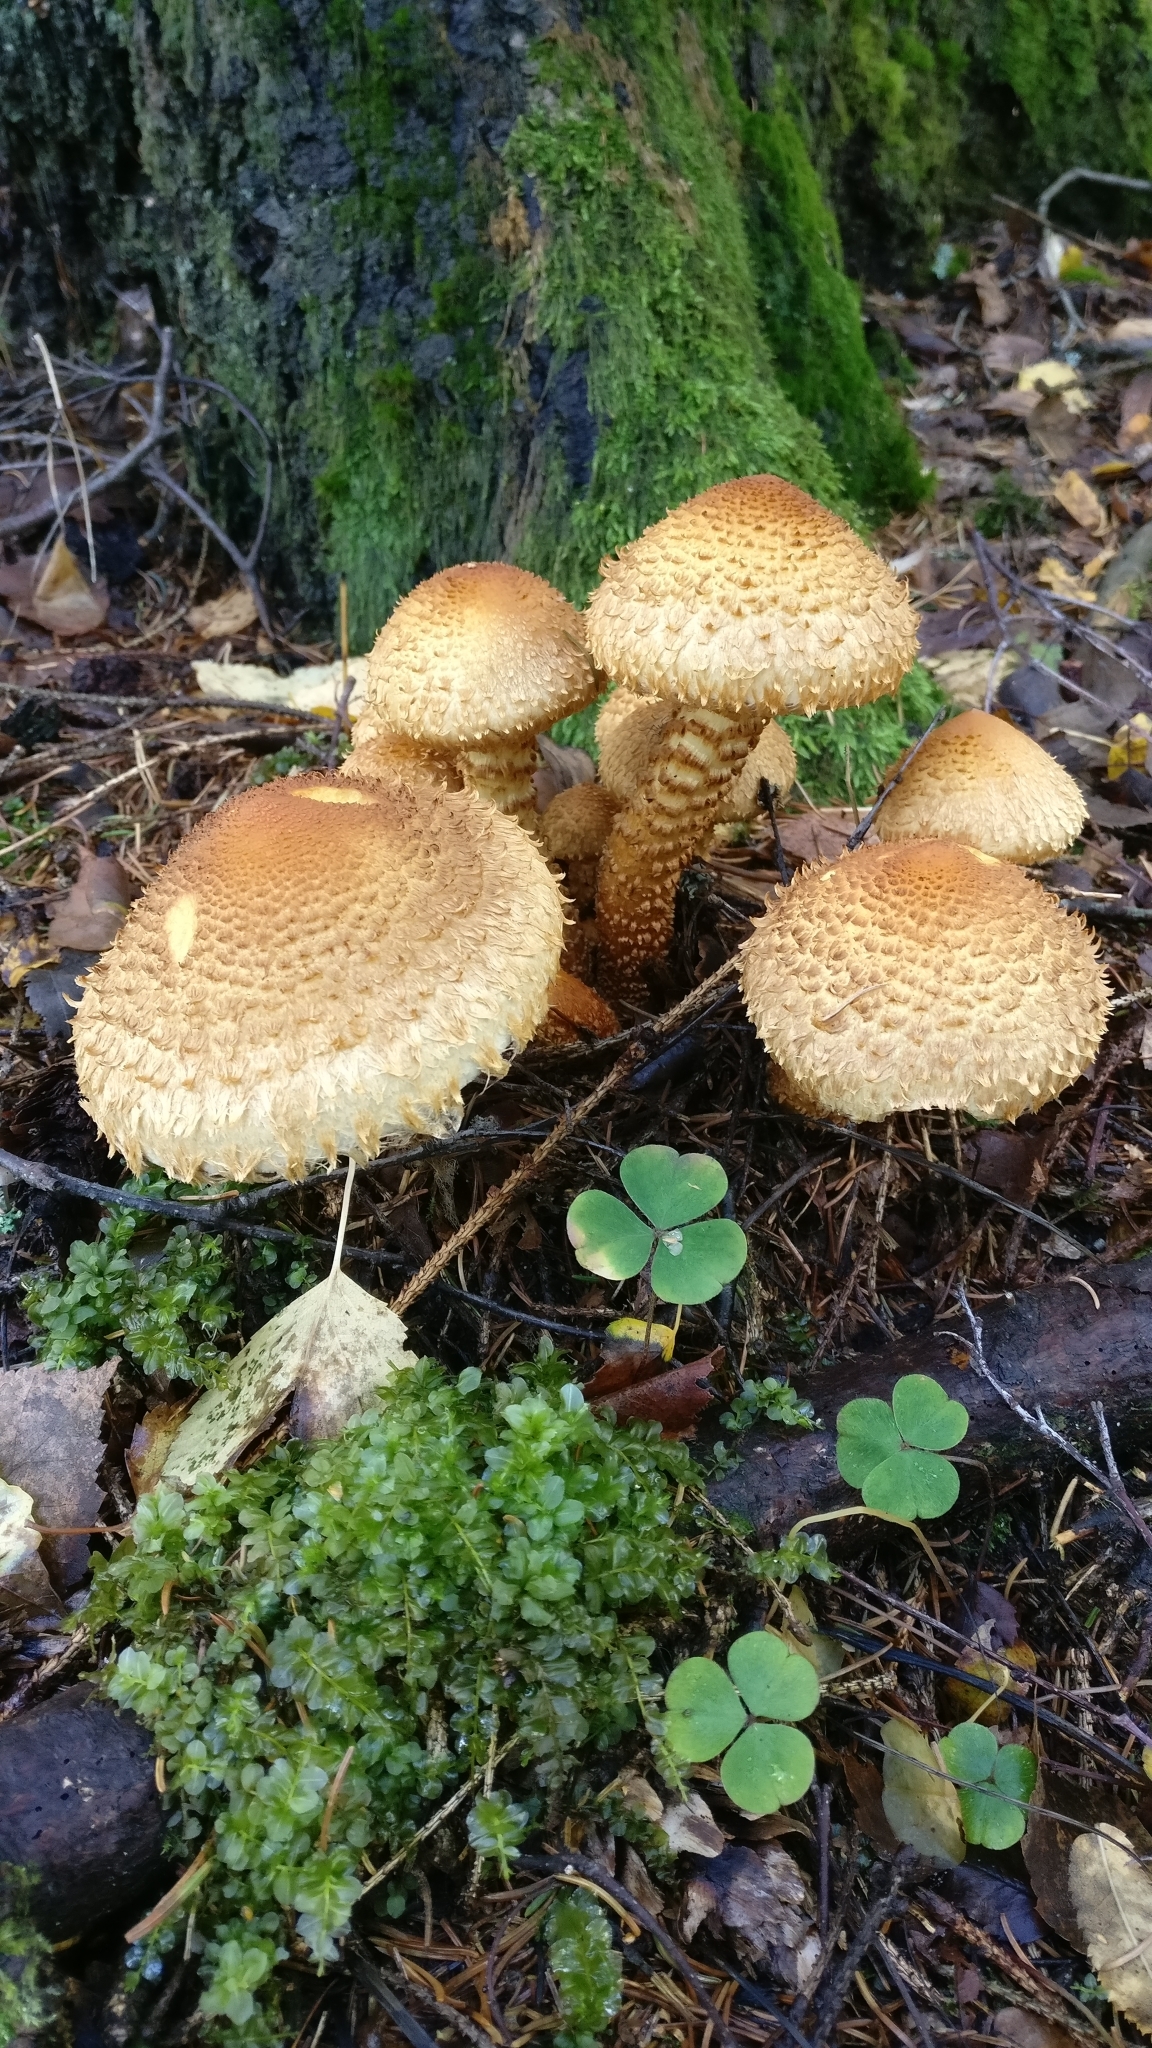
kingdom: Fungi
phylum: Basidiomycota
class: Agaricomycetes
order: Agaricales
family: Strophariaceae
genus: Pholiota
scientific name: Pholiota squarrosa
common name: Shaggy pholiota
